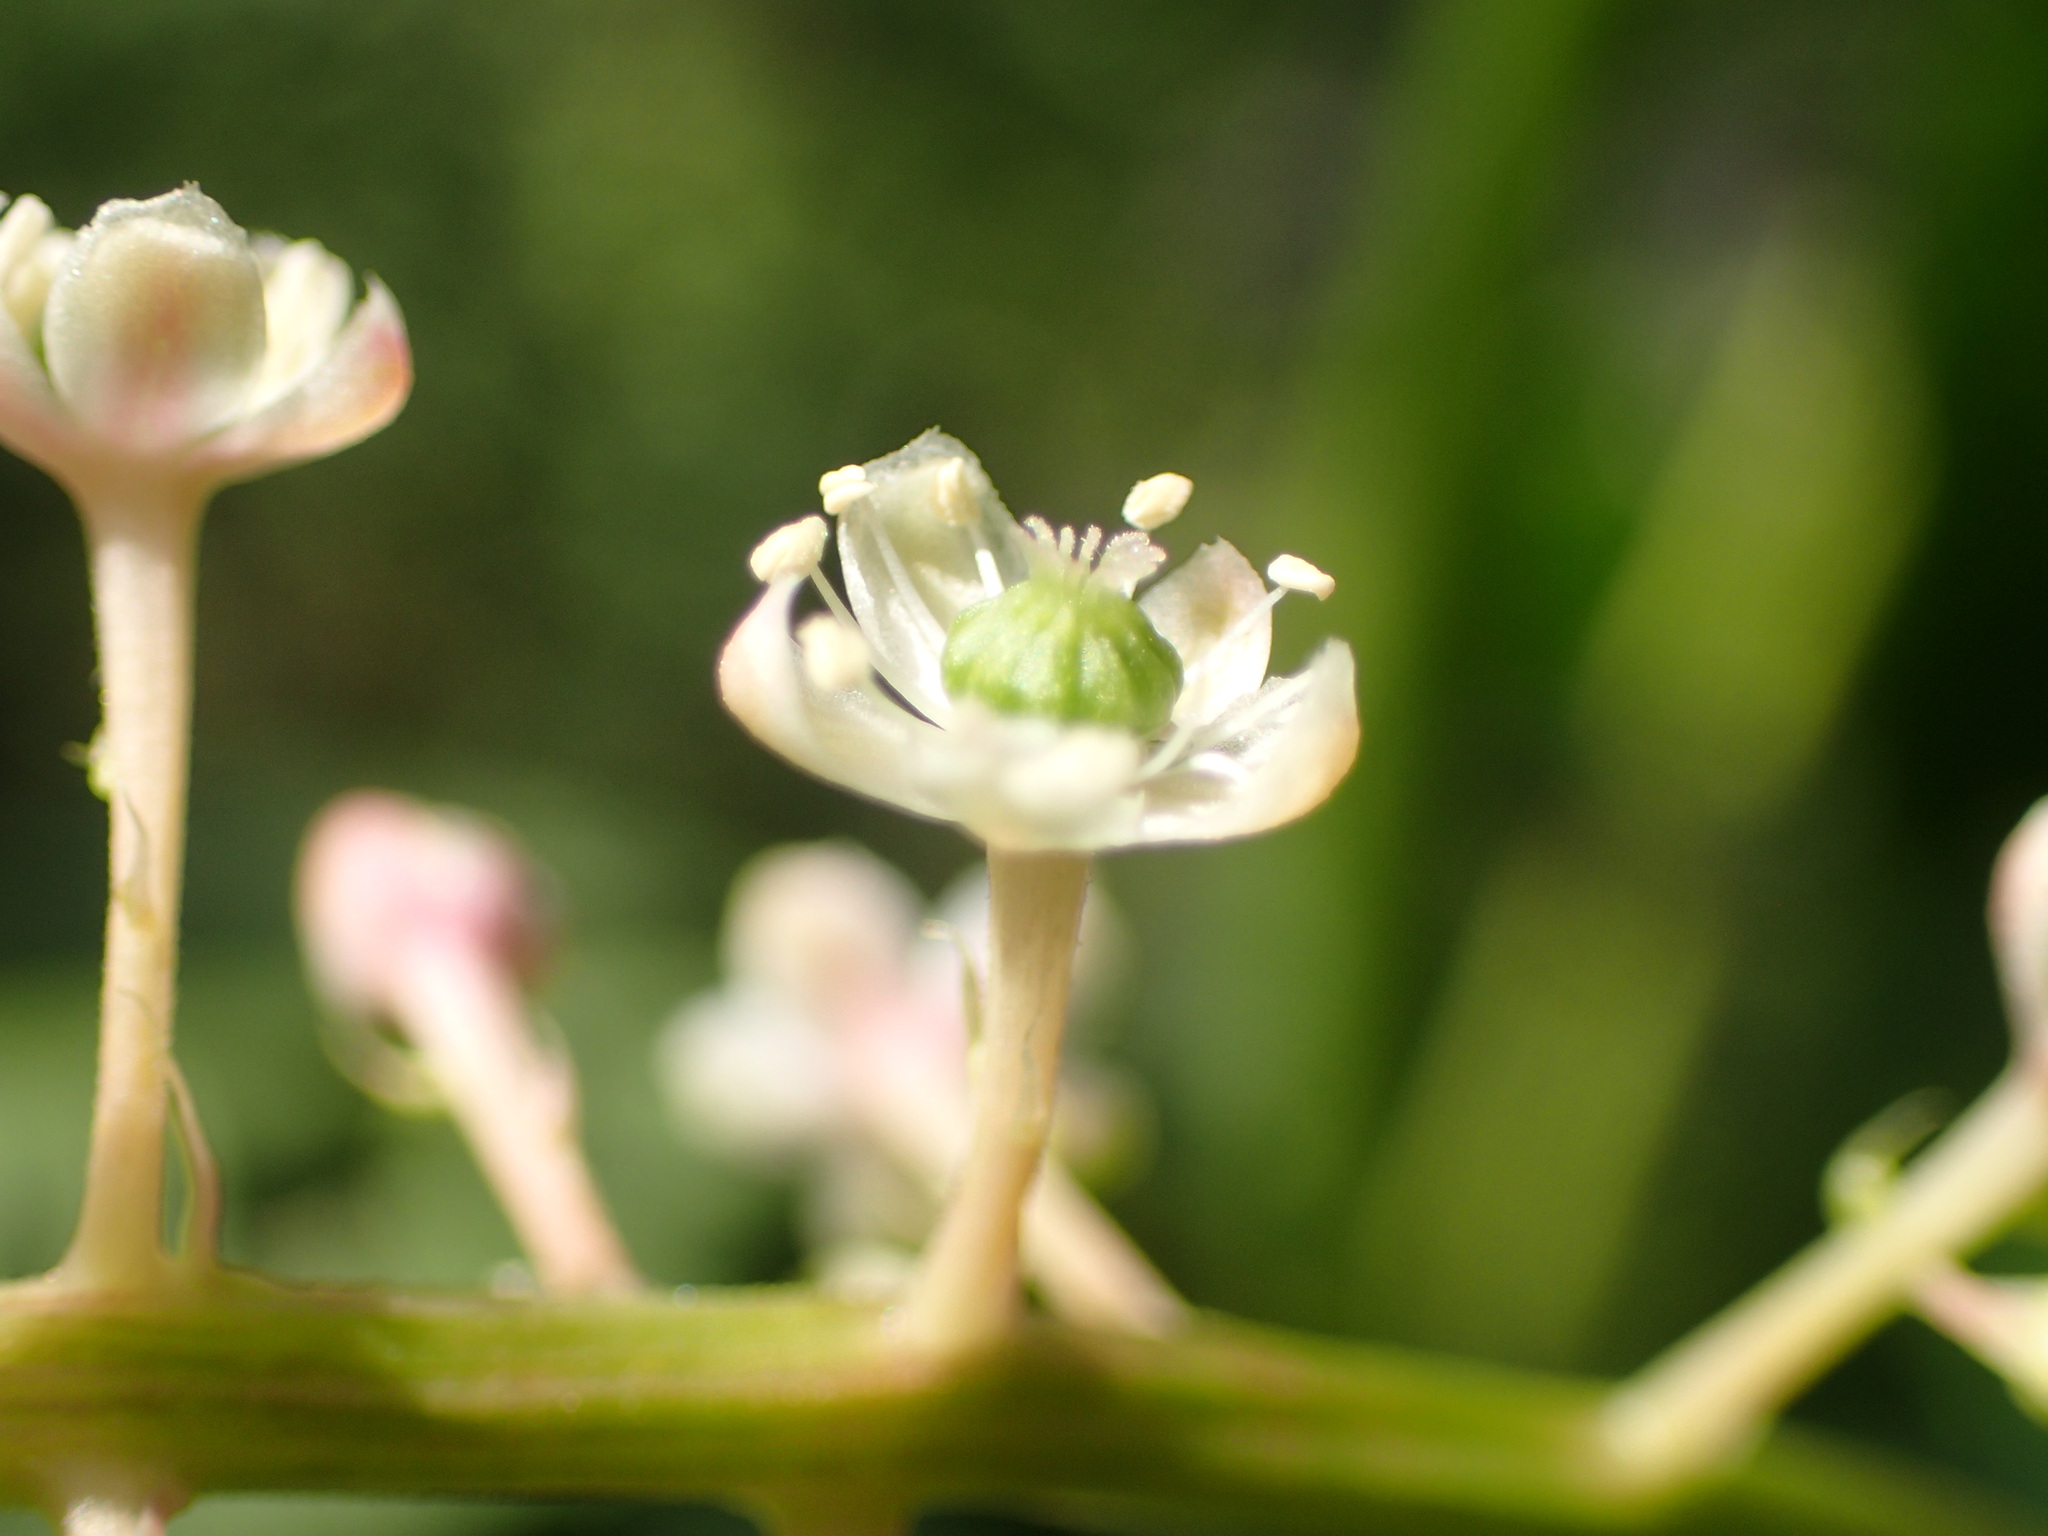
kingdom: Plantae
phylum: Tracheophyta
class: Magnoliopsida
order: Caryophyllales
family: Phytolaccaceae
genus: Phytolacca
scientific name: Phytolacca americana
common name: American pokeweed
